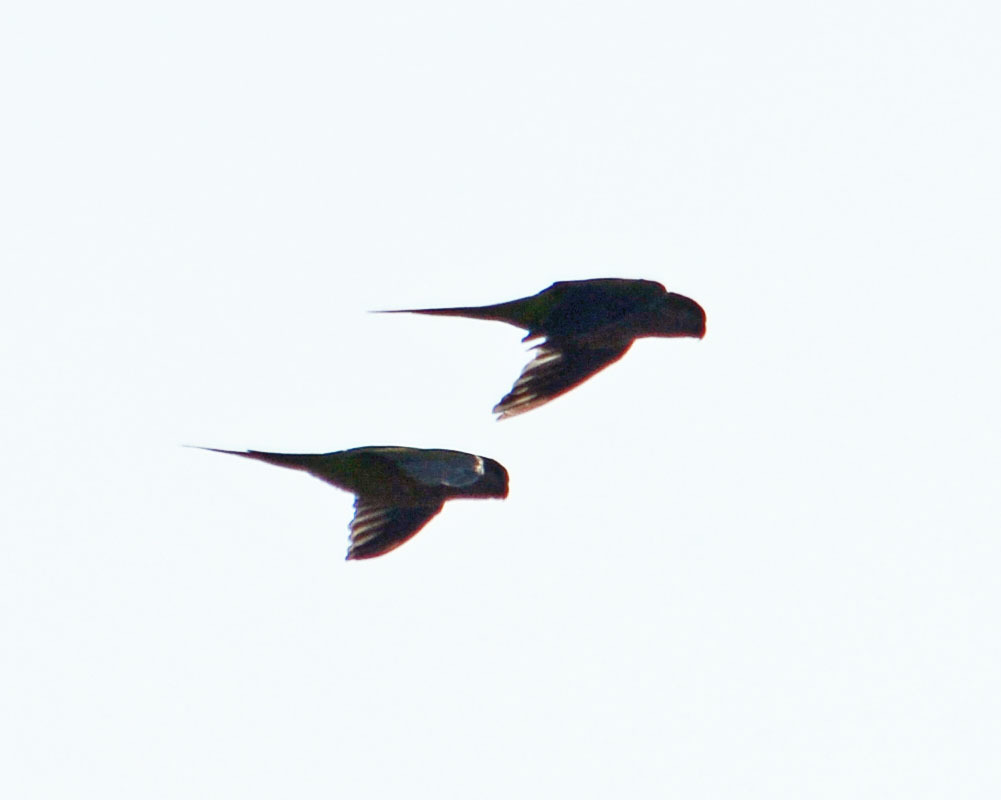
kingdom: Animalia
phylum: Chordata
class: Aves
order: Psittaciformes
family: Psittacidae
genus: Myiopsitta
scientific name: Myiopsitta monachus
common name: Monk parakeet
